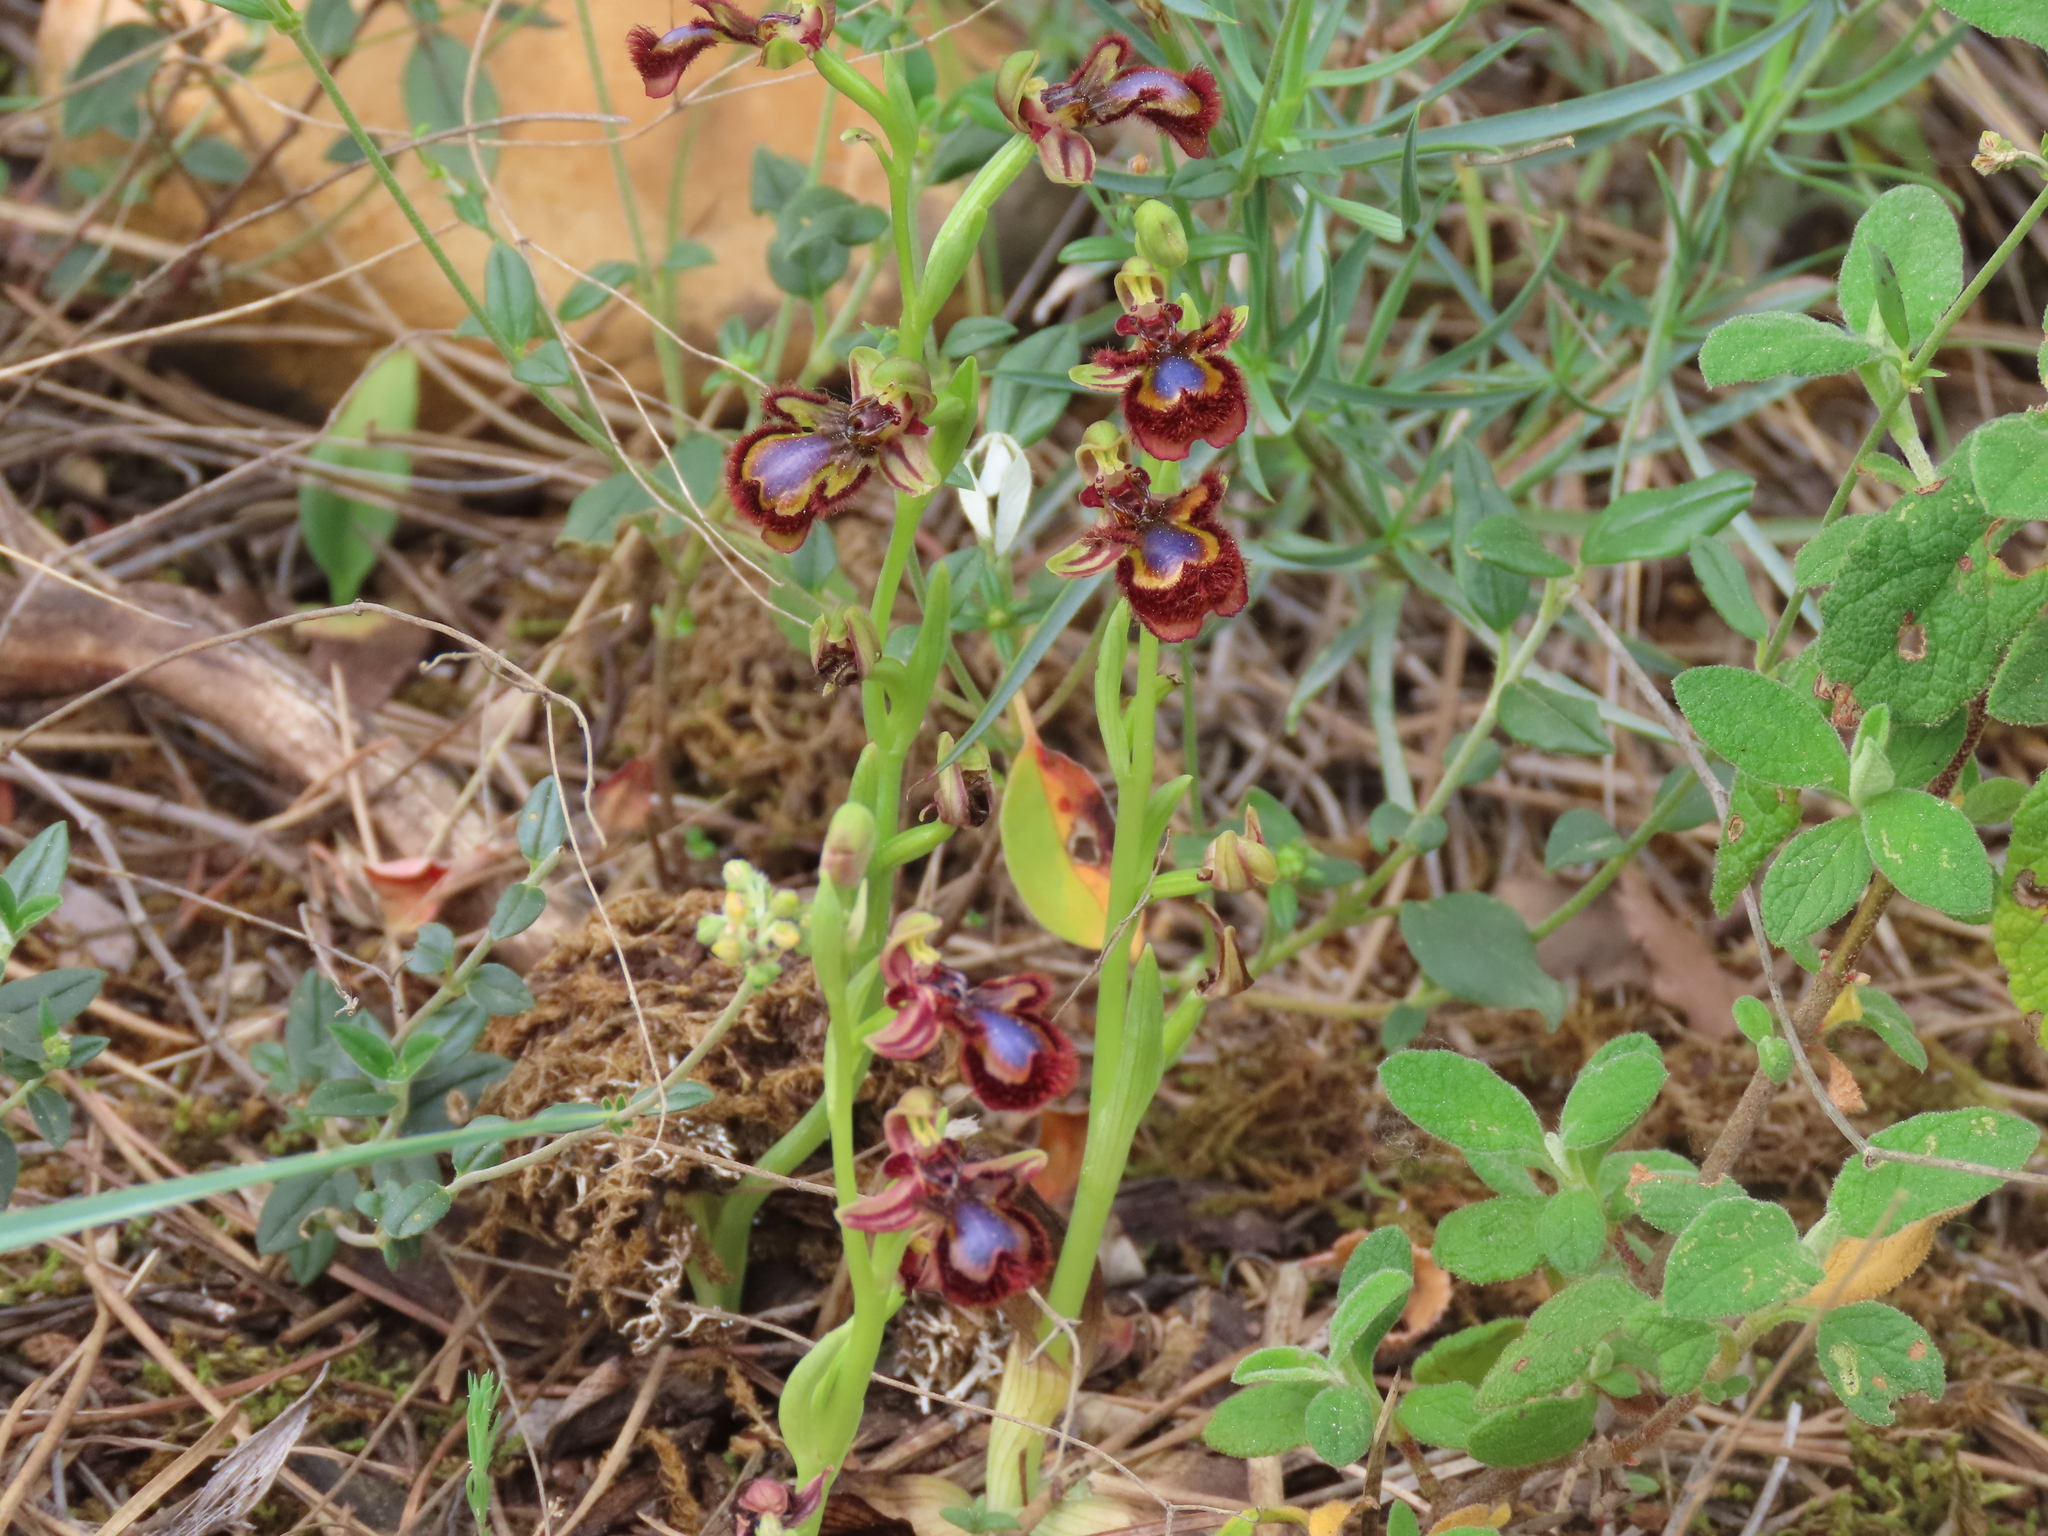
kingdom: Plantae
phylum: Tracheophyta
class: Liliopsida
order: Asparagales
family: Orchidaceae
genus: Ophrys
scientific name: Ophrys speculum
